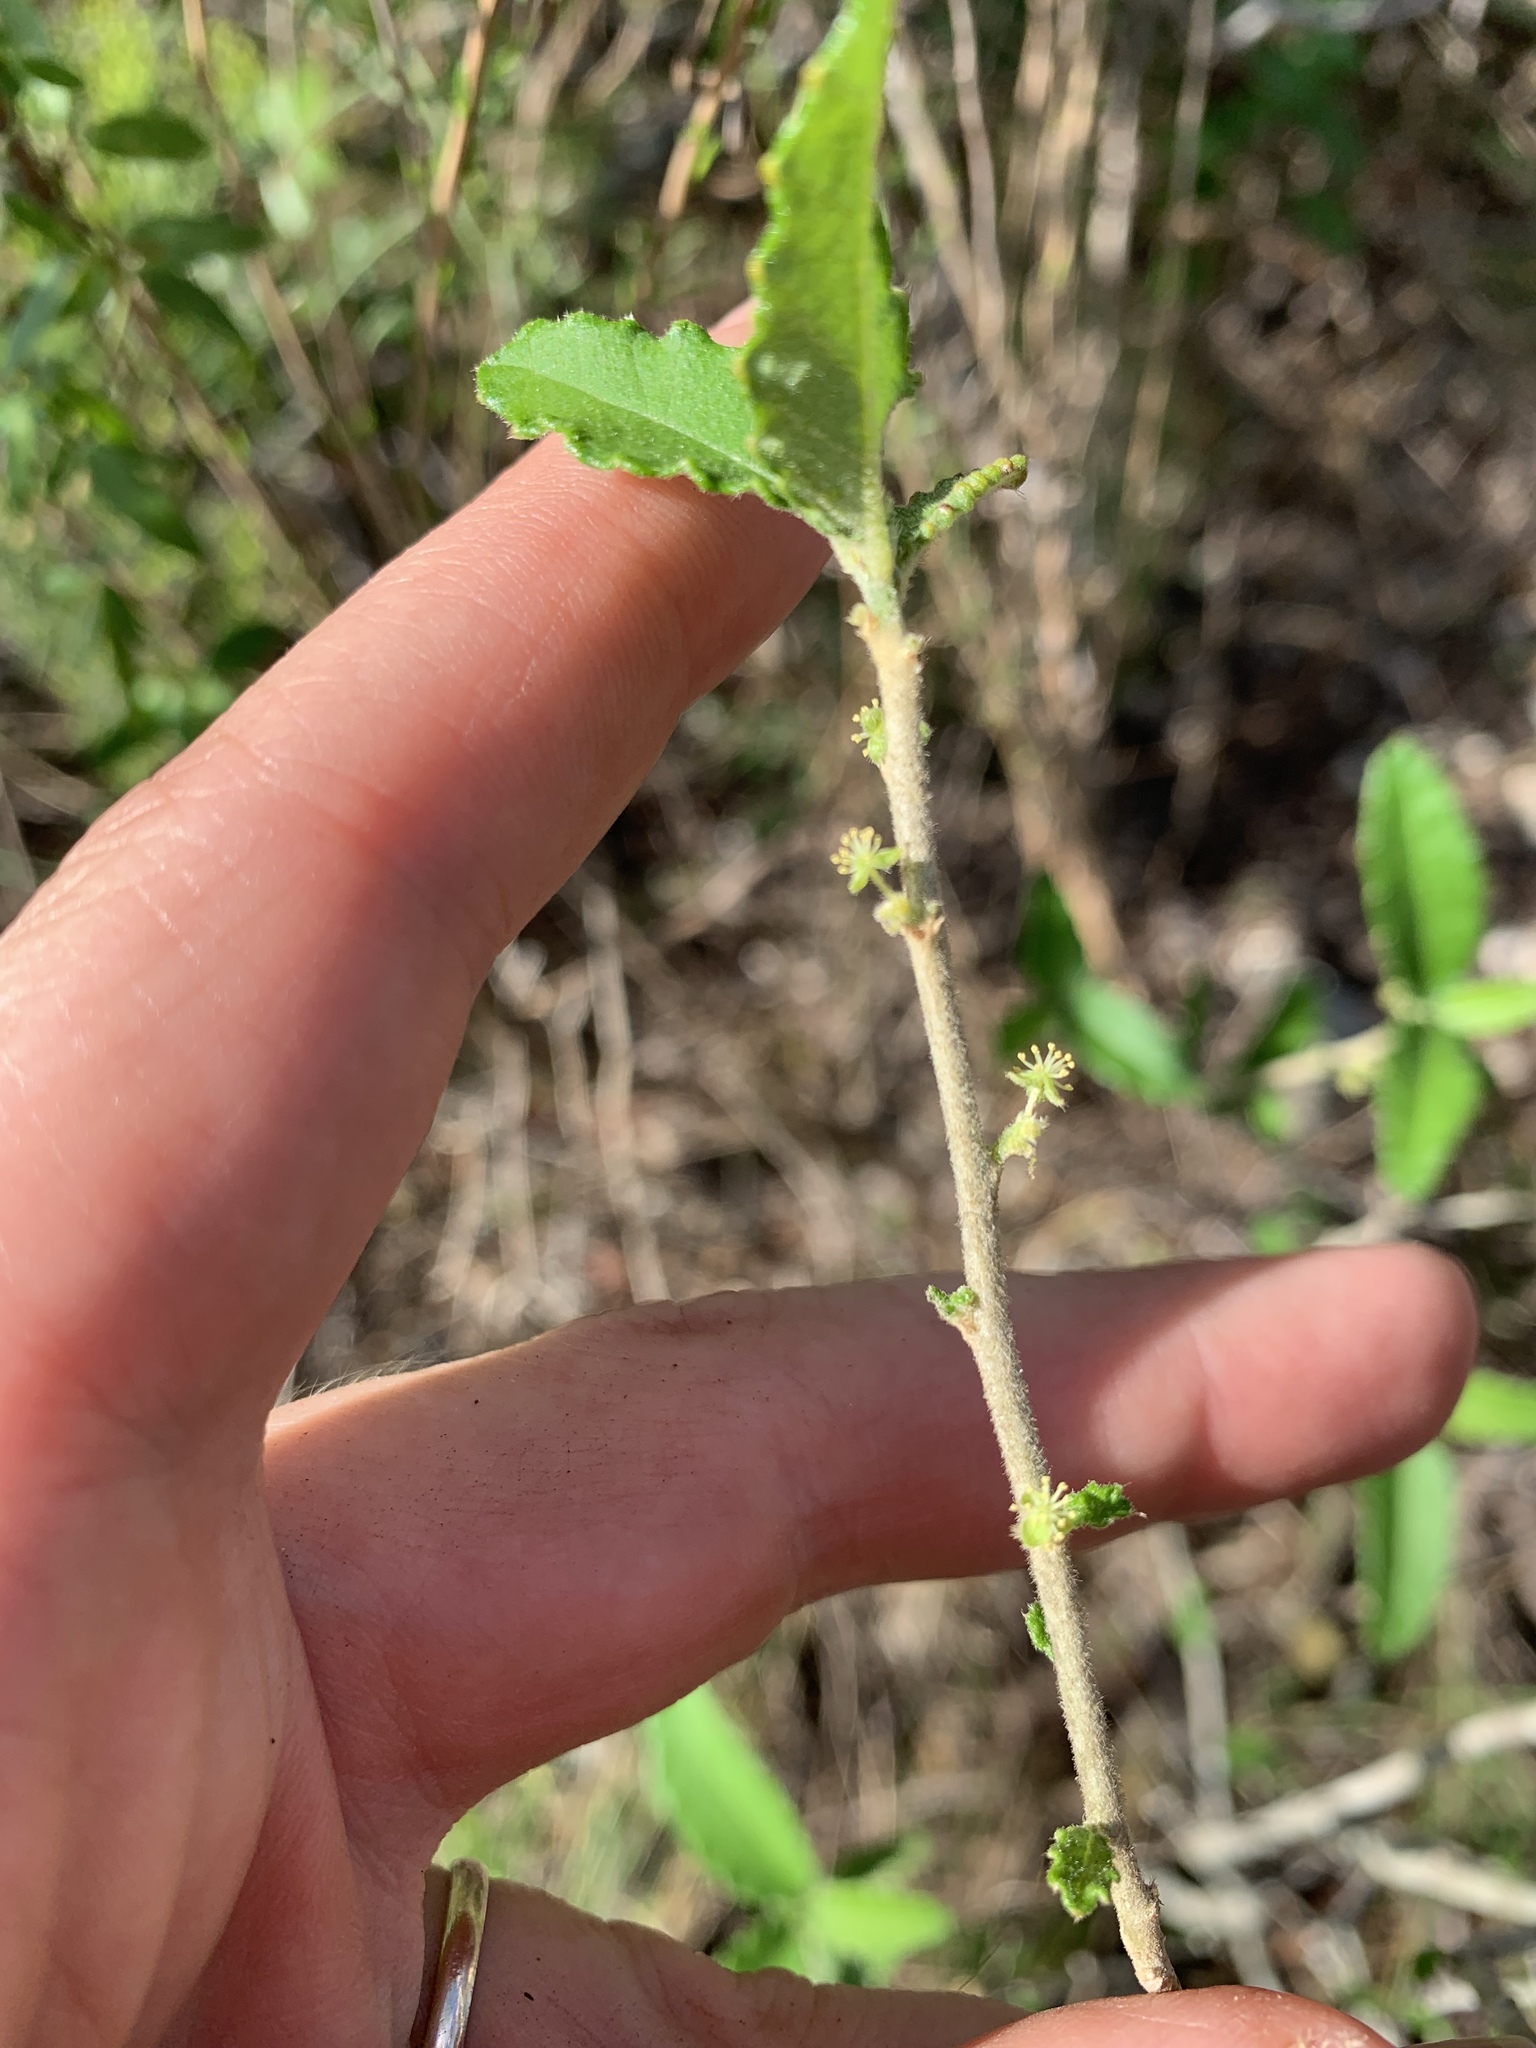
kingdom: Plantae
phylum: Tracheophyta
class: Magnoliopsida
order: Malpighiales
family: Euphorbiaceae
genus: Bernardia
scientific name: Bernardia myricifolia
